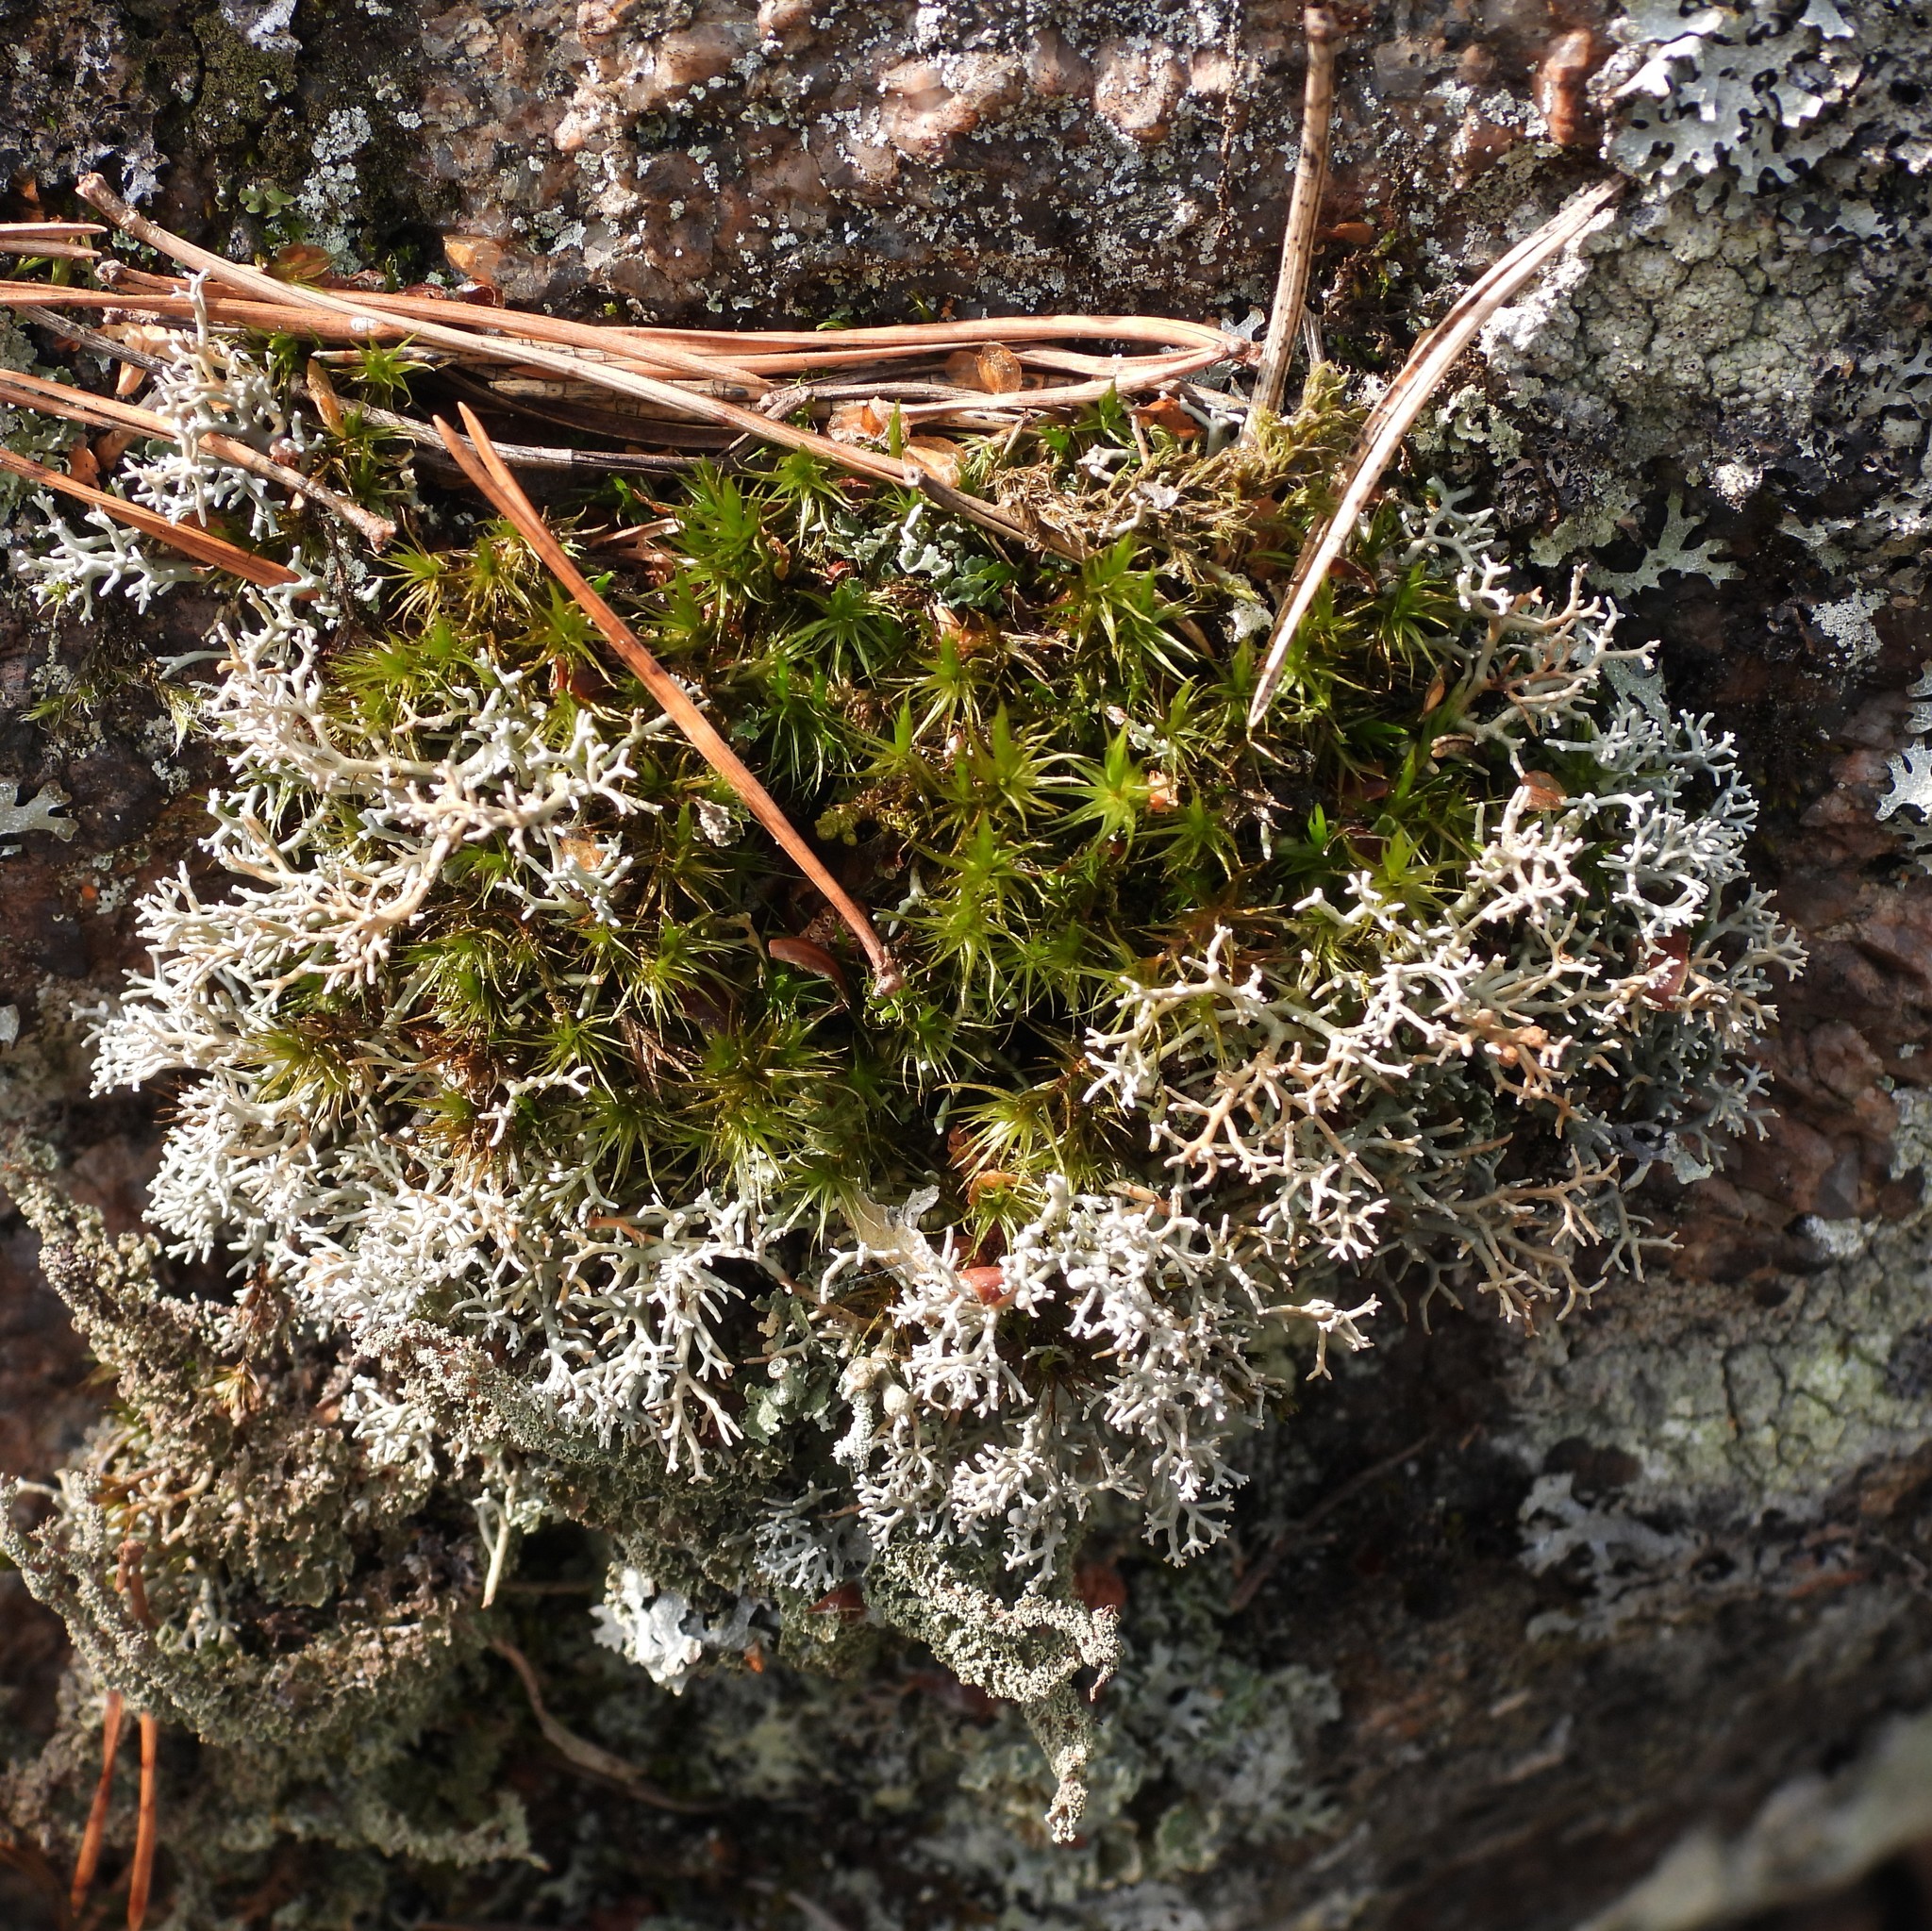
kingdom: Fungi
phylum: Ascomycota
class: Lecanoromycetes
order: Lecanorales
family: Sphaerophoraceae
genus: Sphaerophorus
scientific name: Sphaerophorus fragilis
